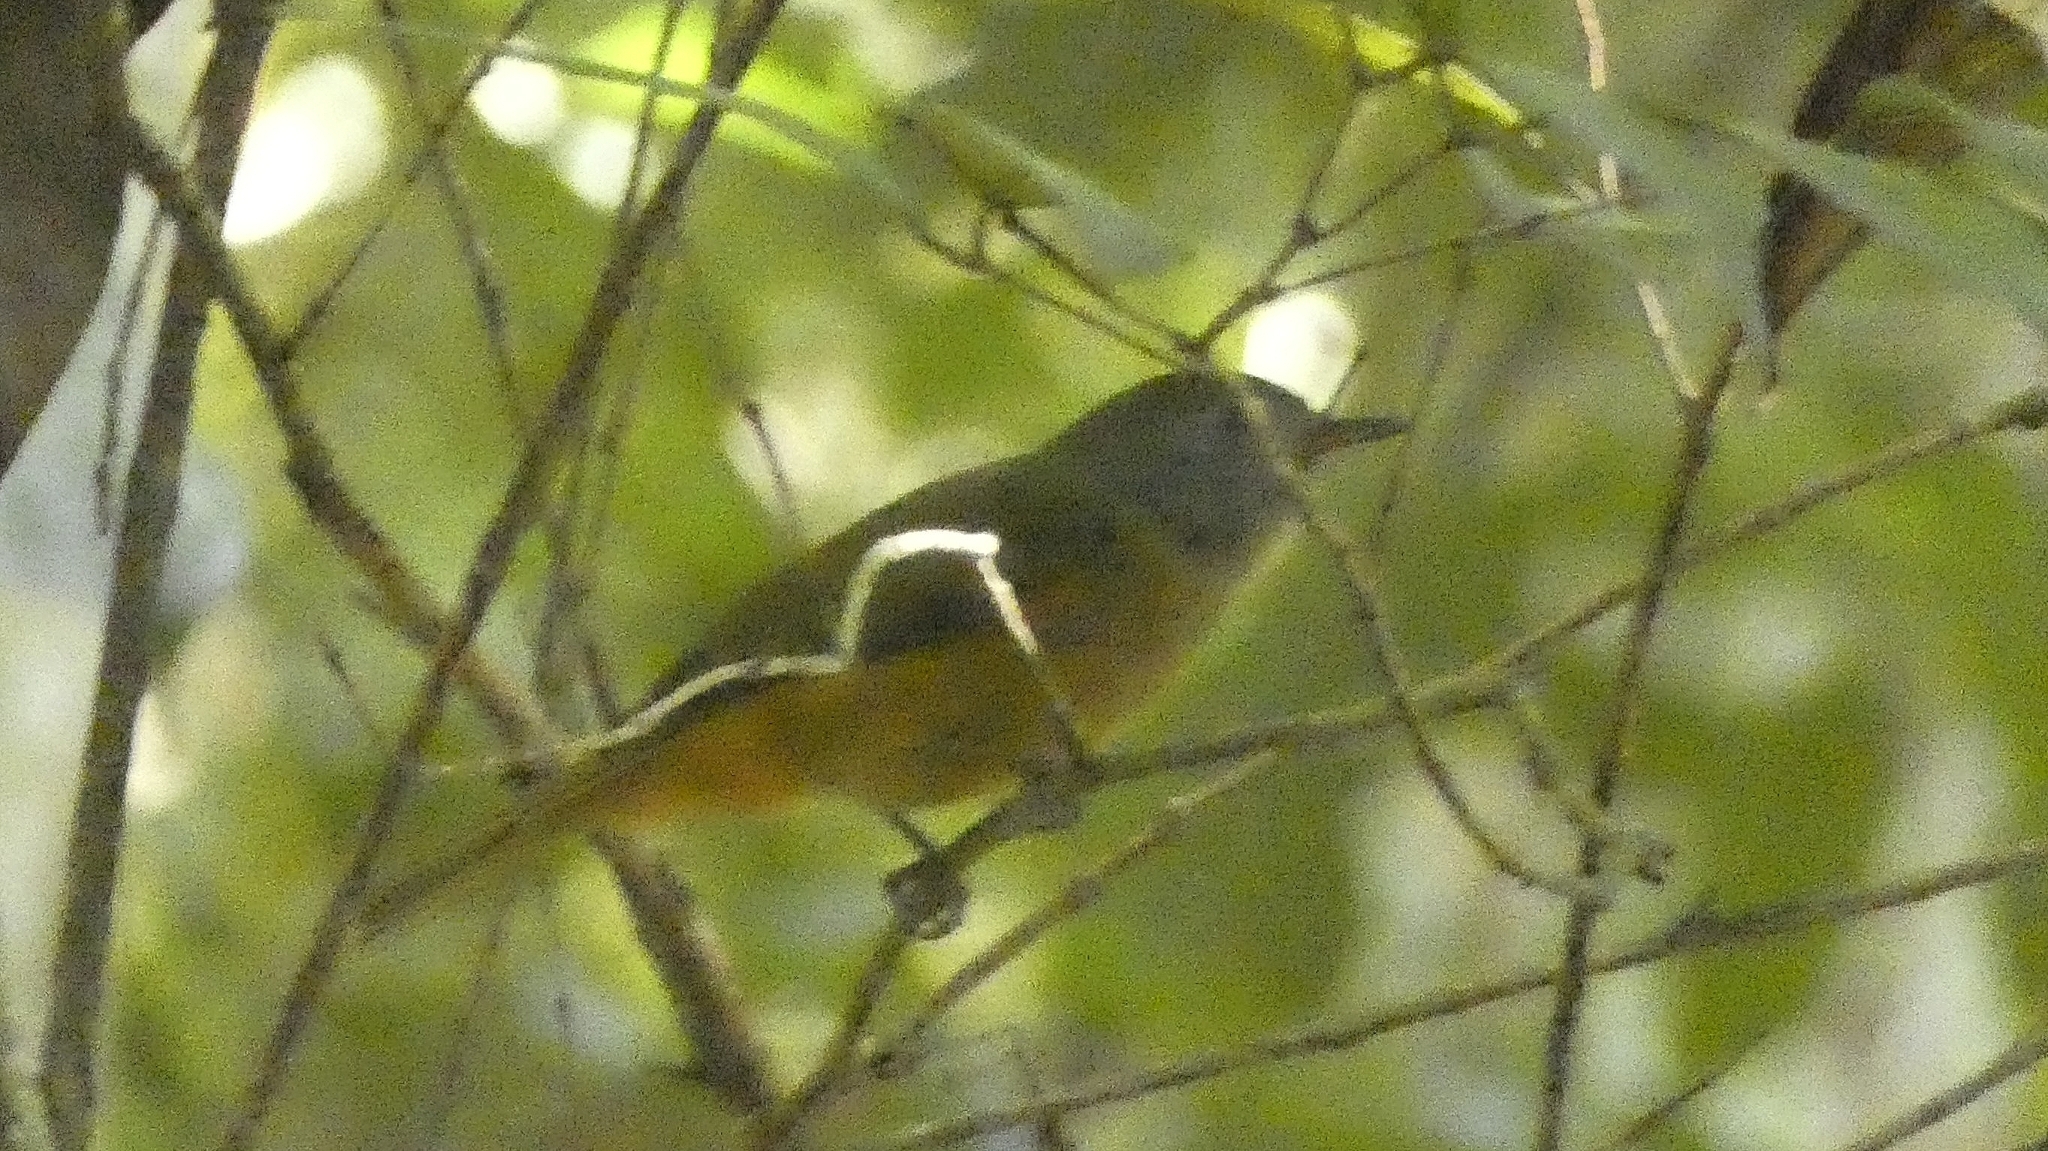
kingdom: Animalia
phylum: Chordata
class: Aves
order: Passeriformes
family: Tyrannidae
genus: Mionectes
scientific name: Mionectes rufiventris
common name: Grey-hooded flycatcher
